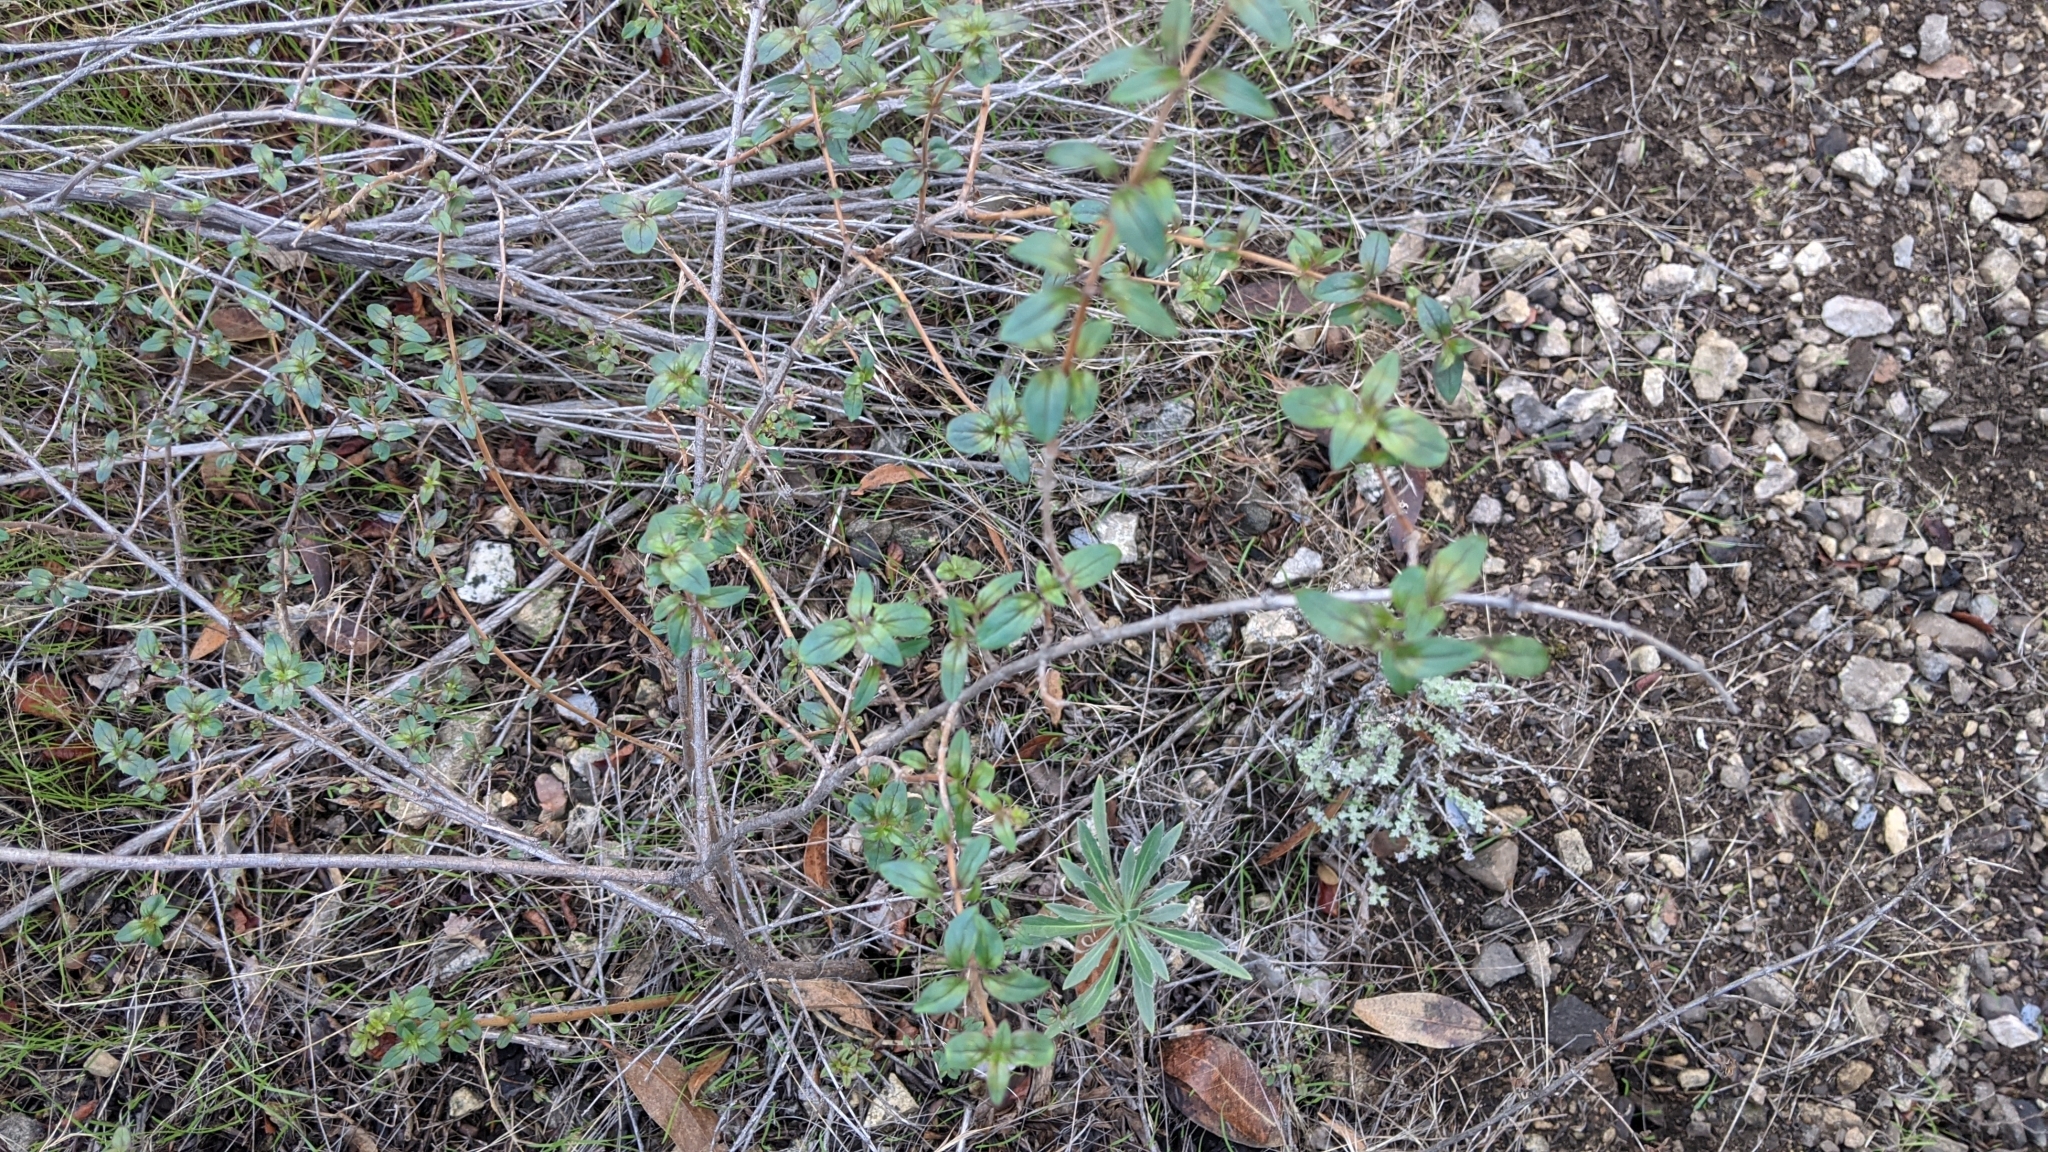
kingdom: Plantae
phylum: Tracheophyta
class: Magnoliopsida
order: Lamiales
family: Plantaginaceae
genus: Keckiella
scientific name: Keckiella cordifolia
